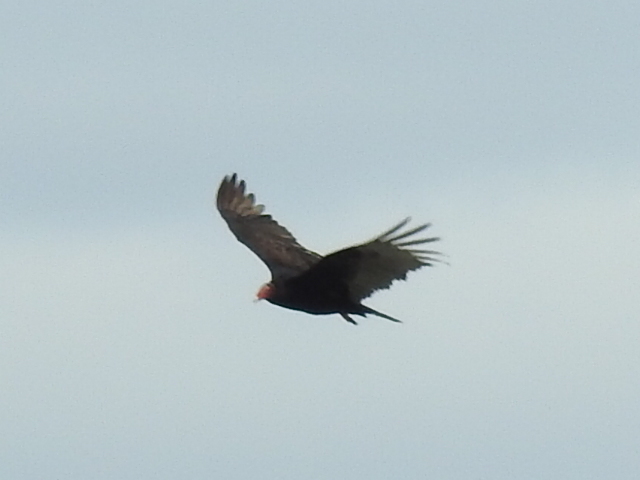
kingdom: Animalia
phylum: Chordata
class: Aves
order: Accipitriformes
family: Cathartidae
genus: Cathartes
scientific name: Cathartes aura
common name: Turkey vulture
